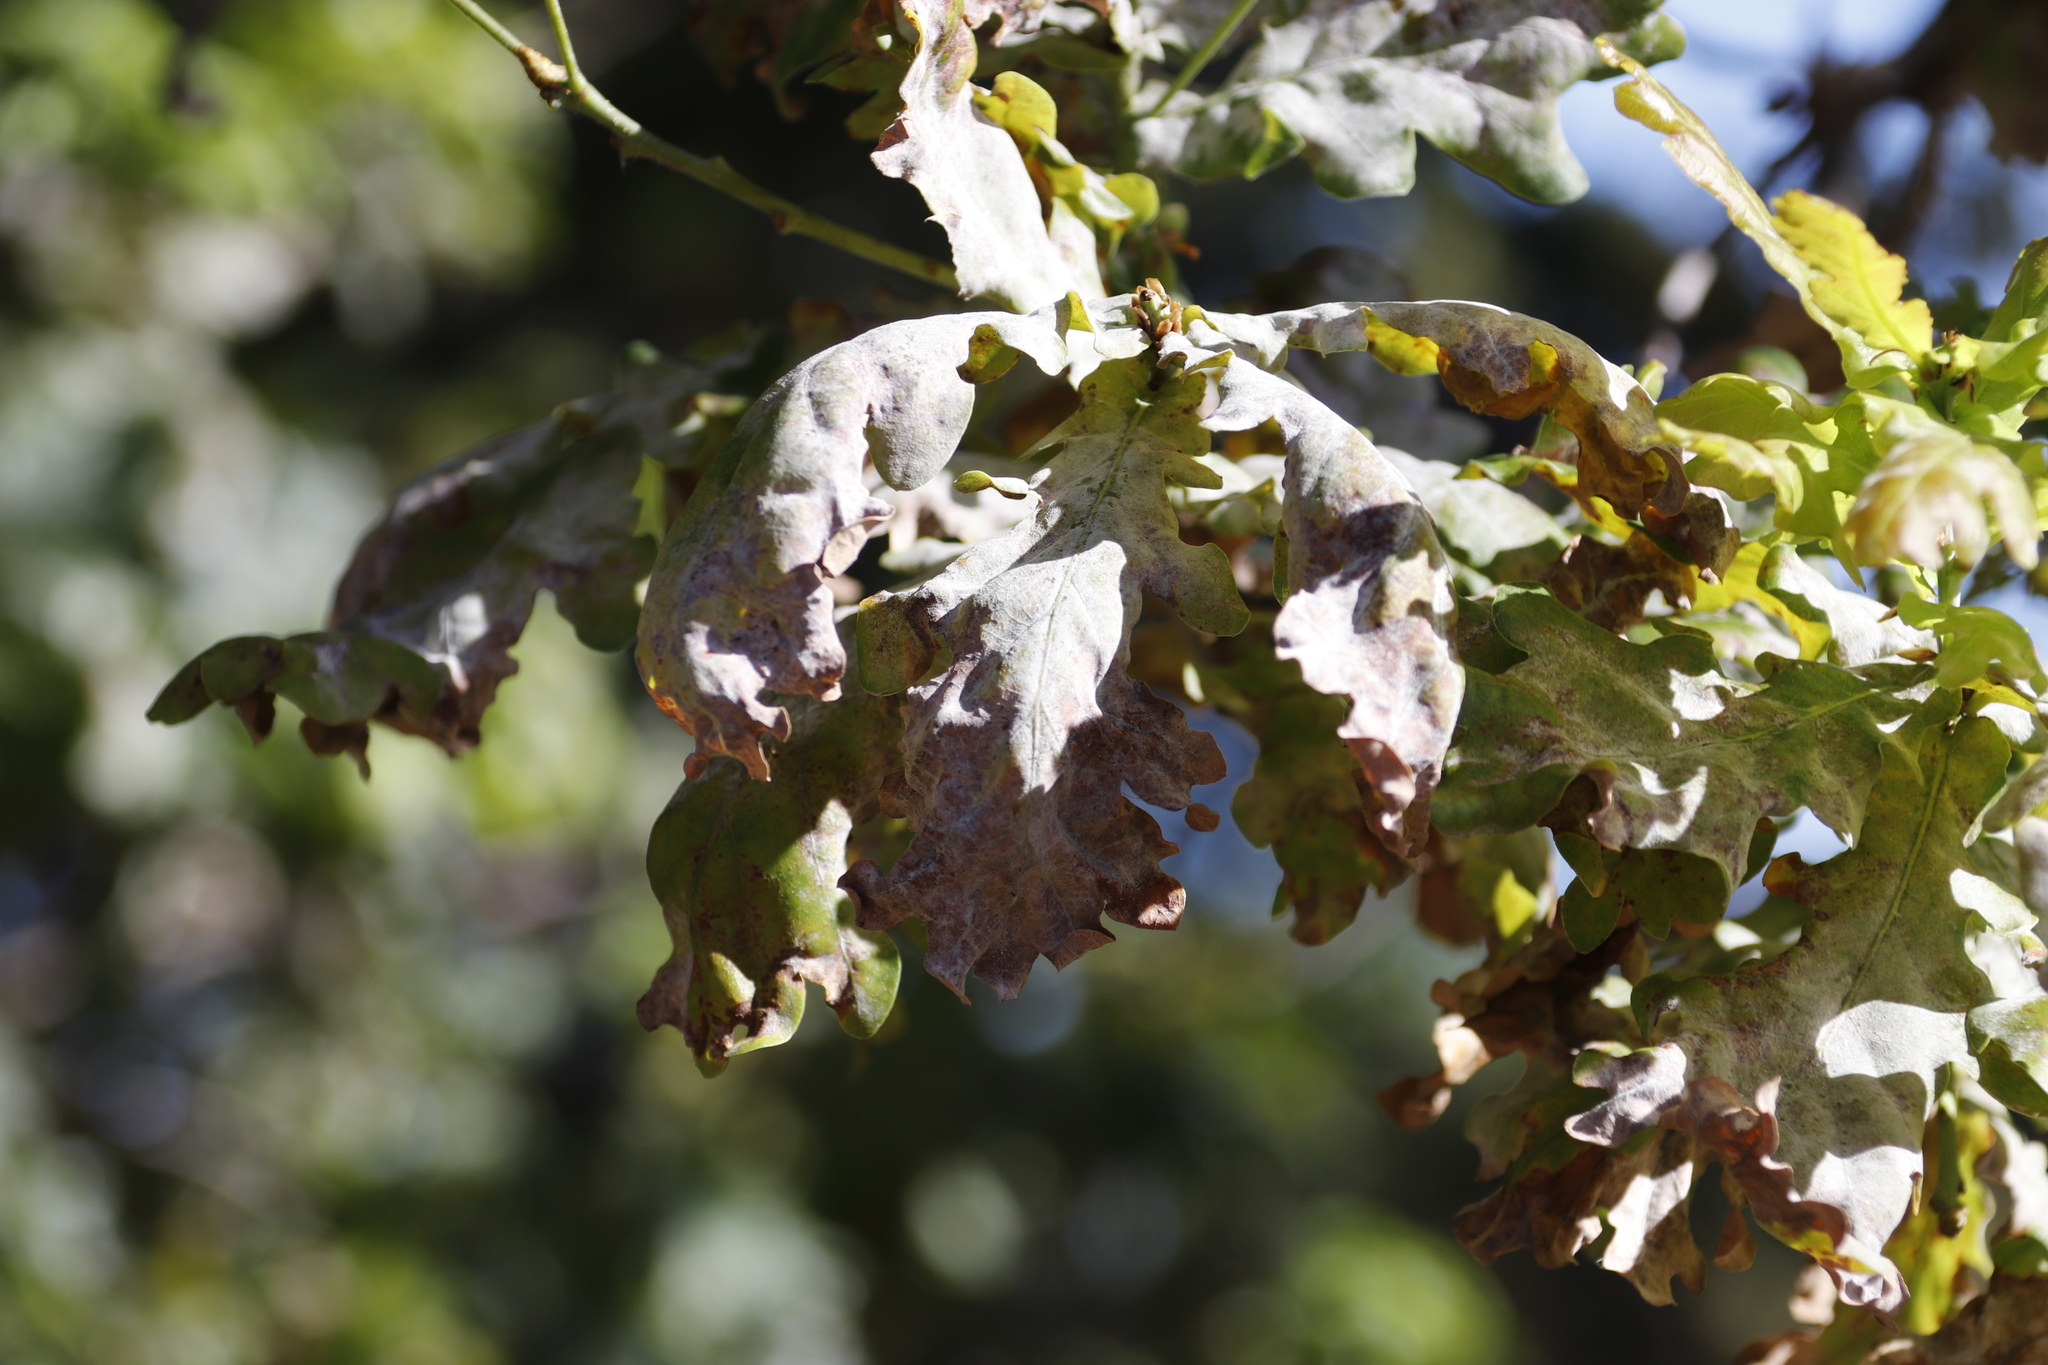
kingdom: Plantae
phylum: Tracheophyta
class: Magnoliopsida
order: Fagales
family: Fagaceae
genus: Quercus
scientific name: Quercus robur
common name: Pedunculate oak
